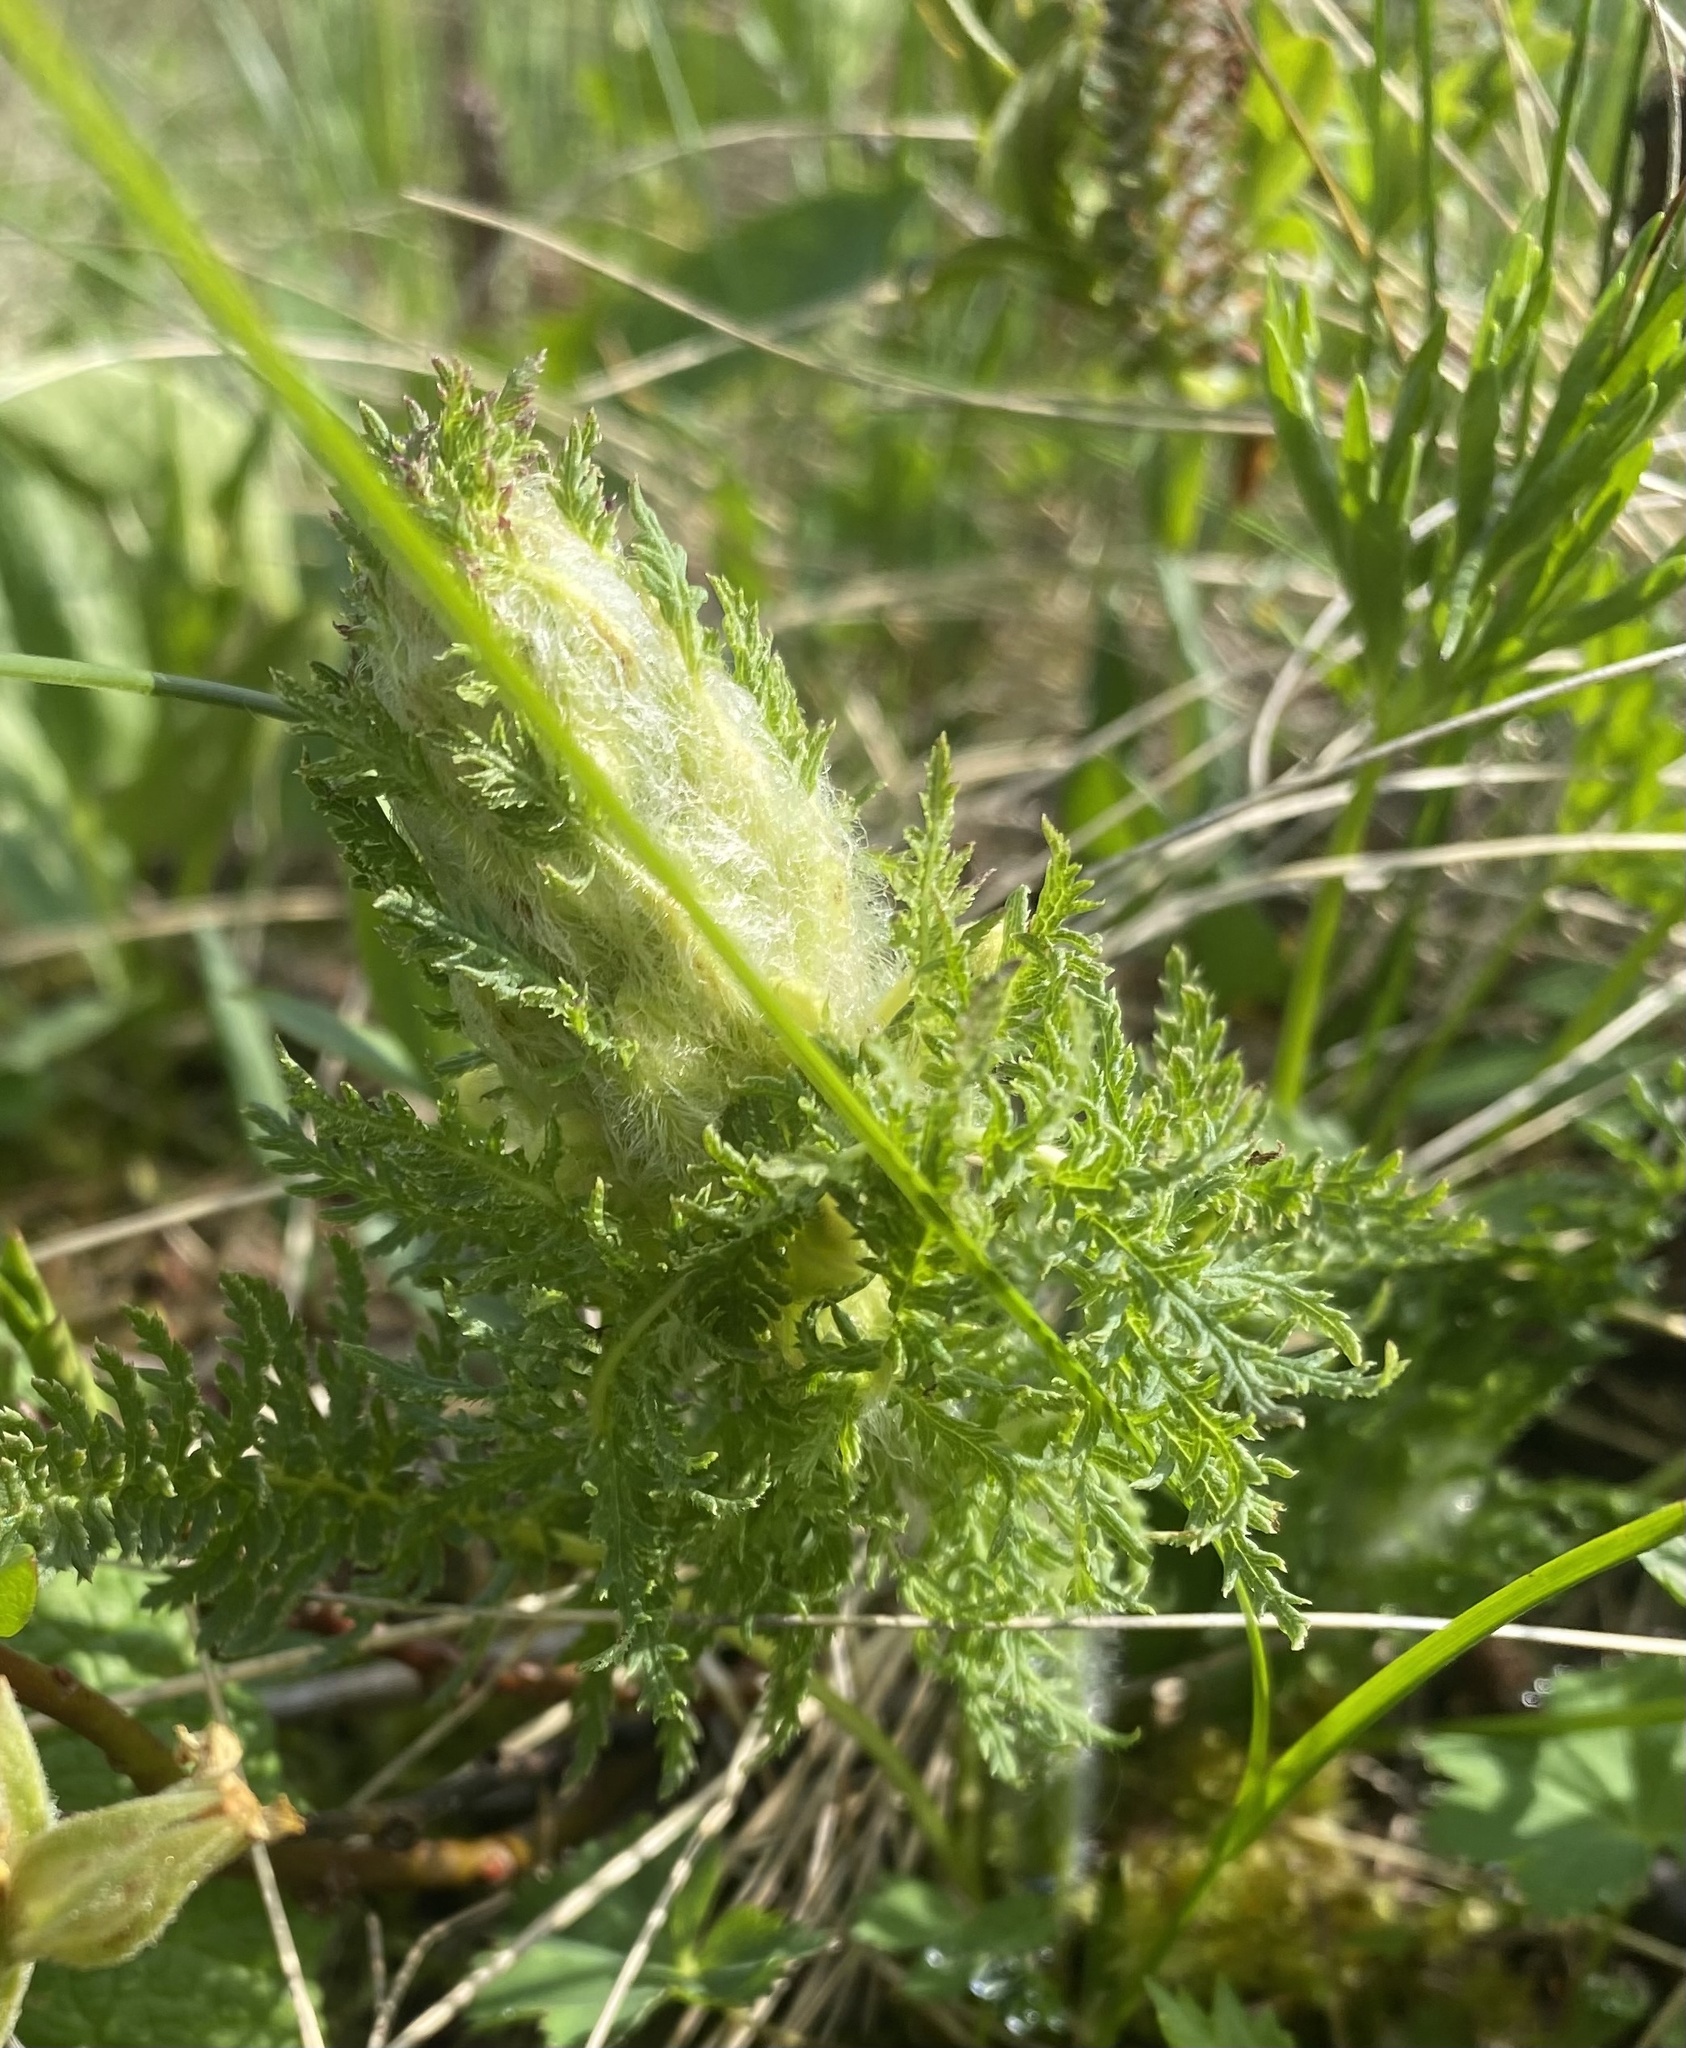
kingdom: Plantae
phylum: Tracheophyta
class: Magnoliopsida
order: Lamiales
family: Orobanchaceae
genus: Pedicularis
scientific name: Pedicularis condensata
